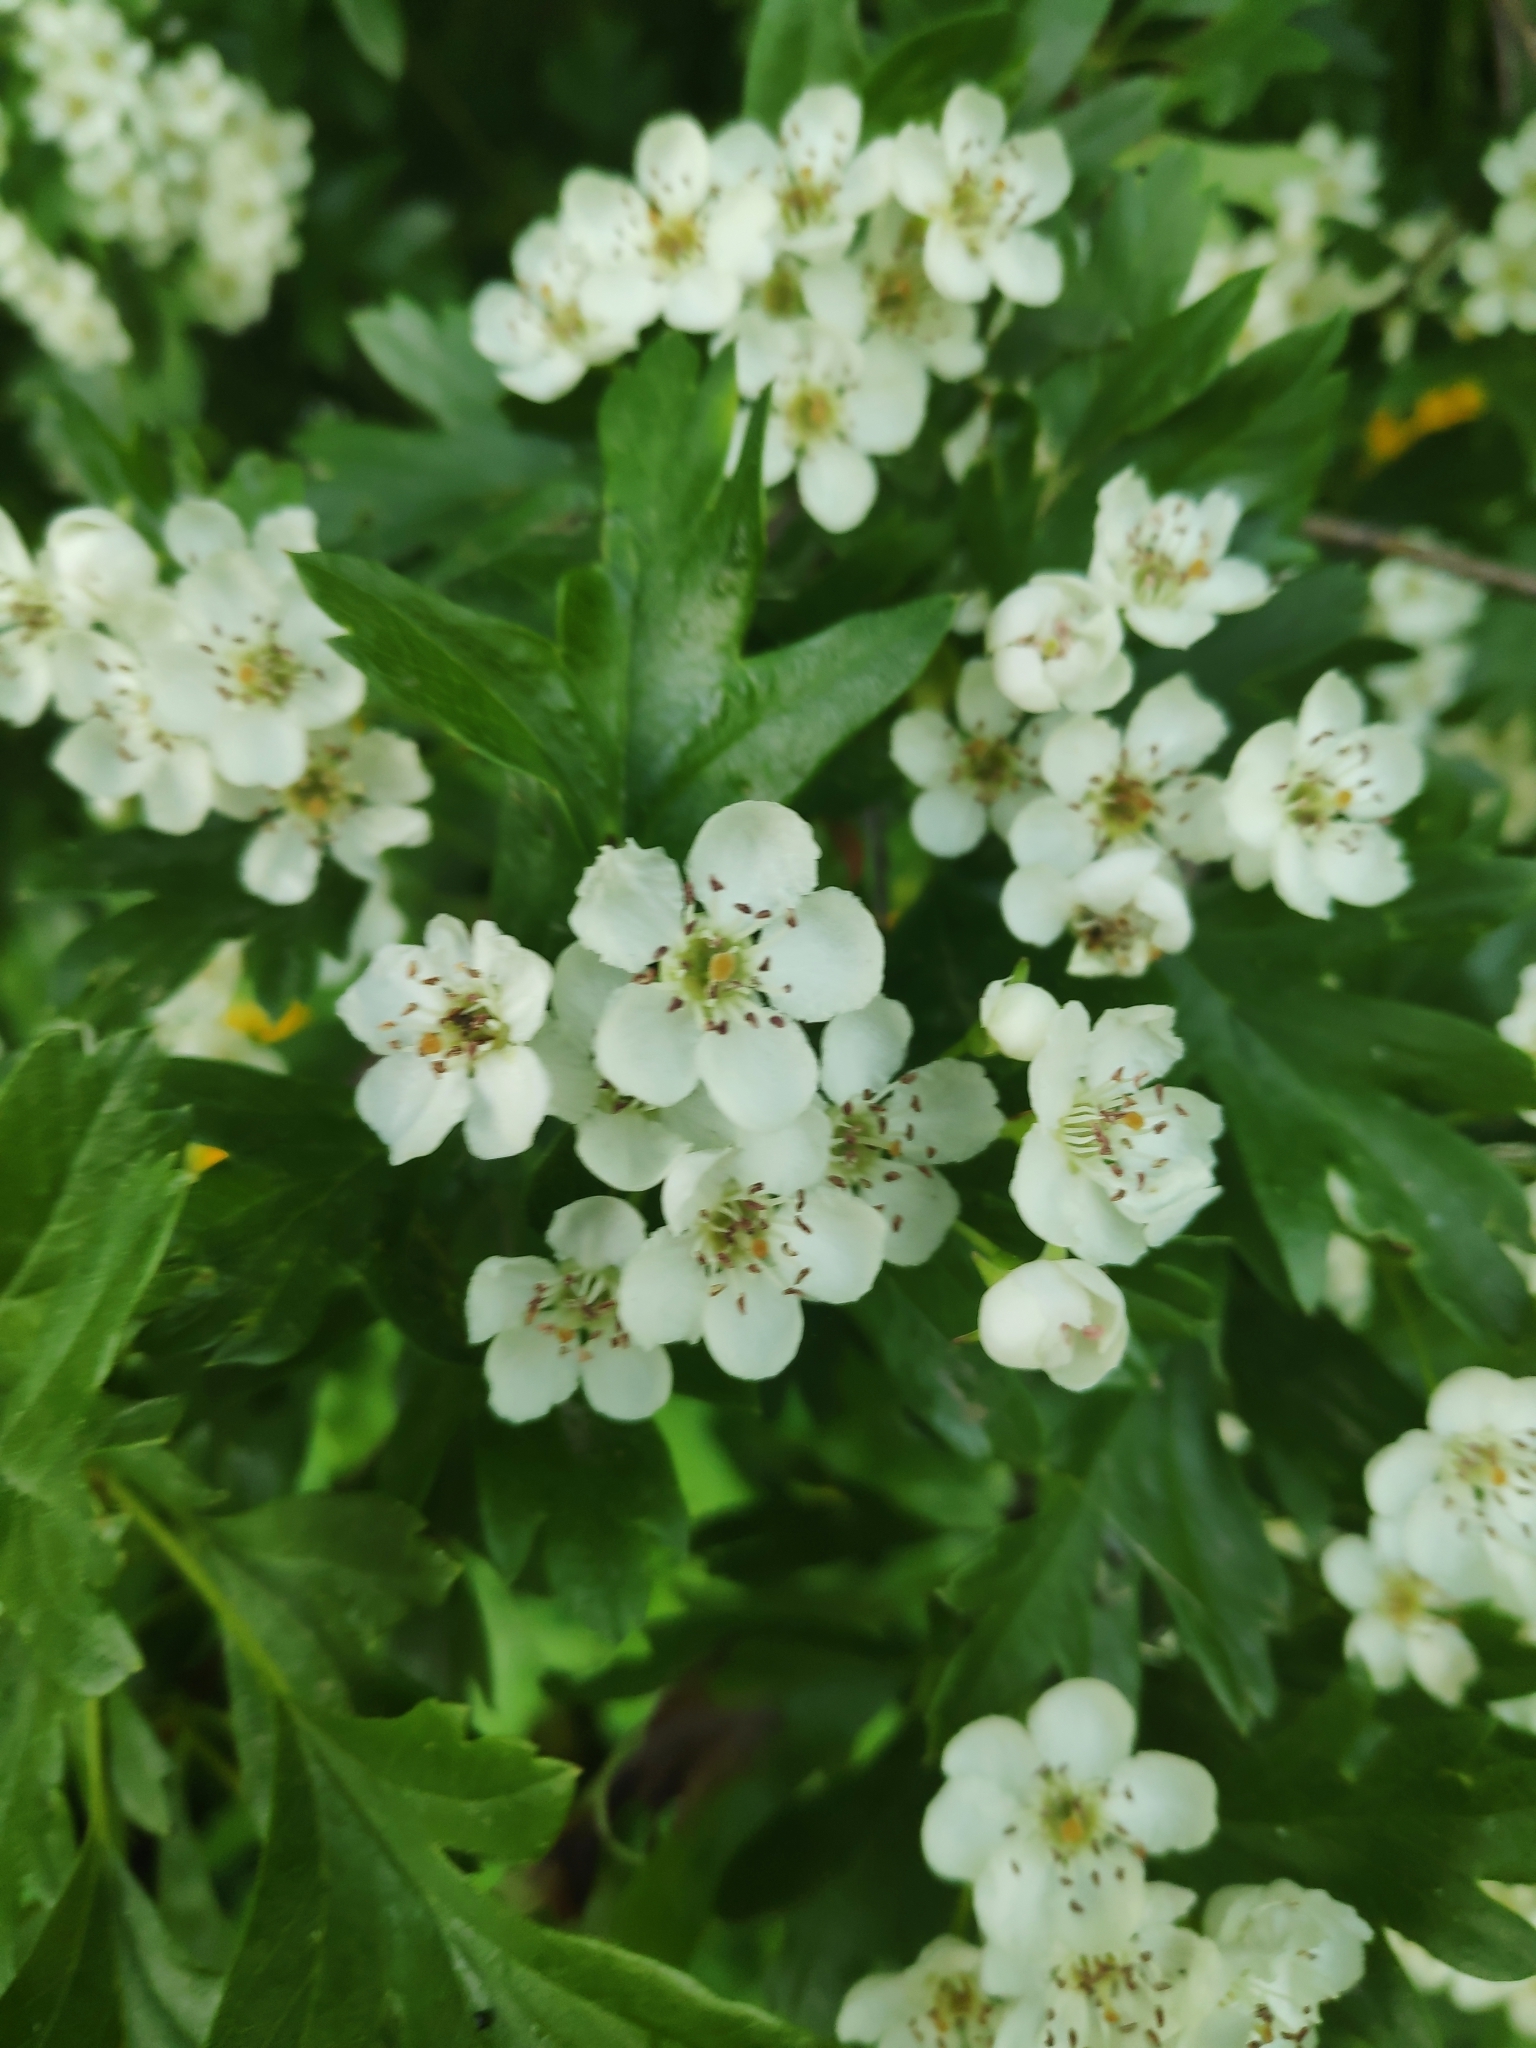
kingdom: Plantae
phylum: Tracheophyta
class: Magnoliopsida
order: Rosales
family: Rosaceae
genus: Crataegus
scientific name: Crataegus monogyna
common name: Hawthorn
